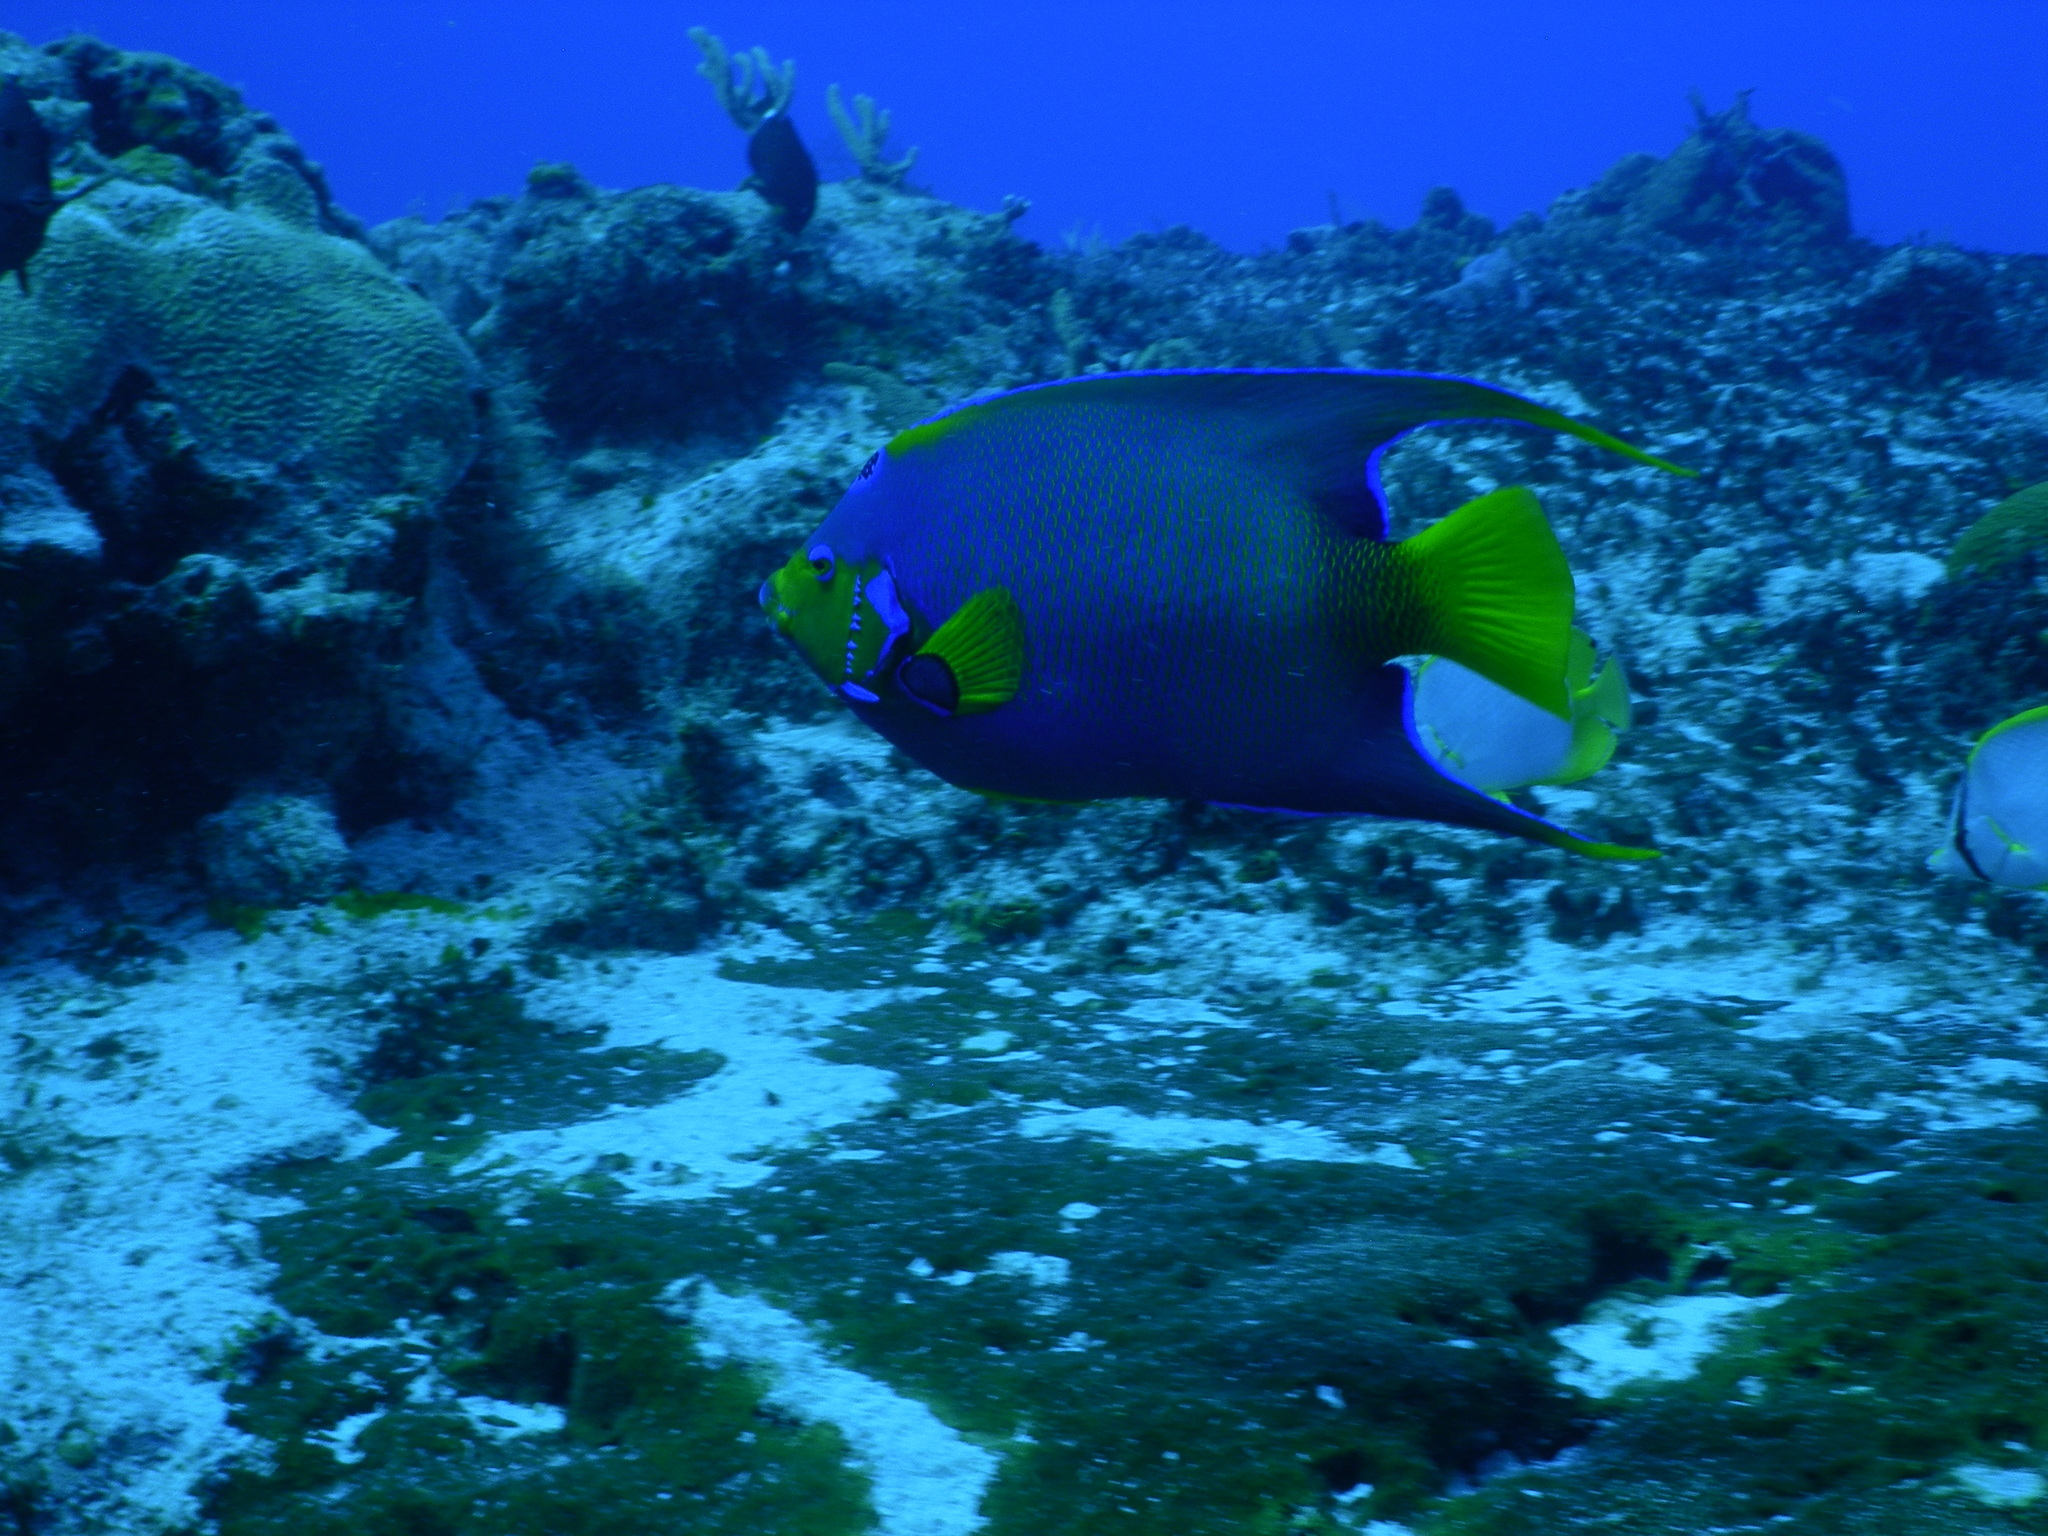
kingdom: Animalia
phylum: Chordata
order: Perciformes
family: Pomacanthidae
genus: Holacanthus
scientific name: Holacanthus ciliaris
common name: Queen angelfish
